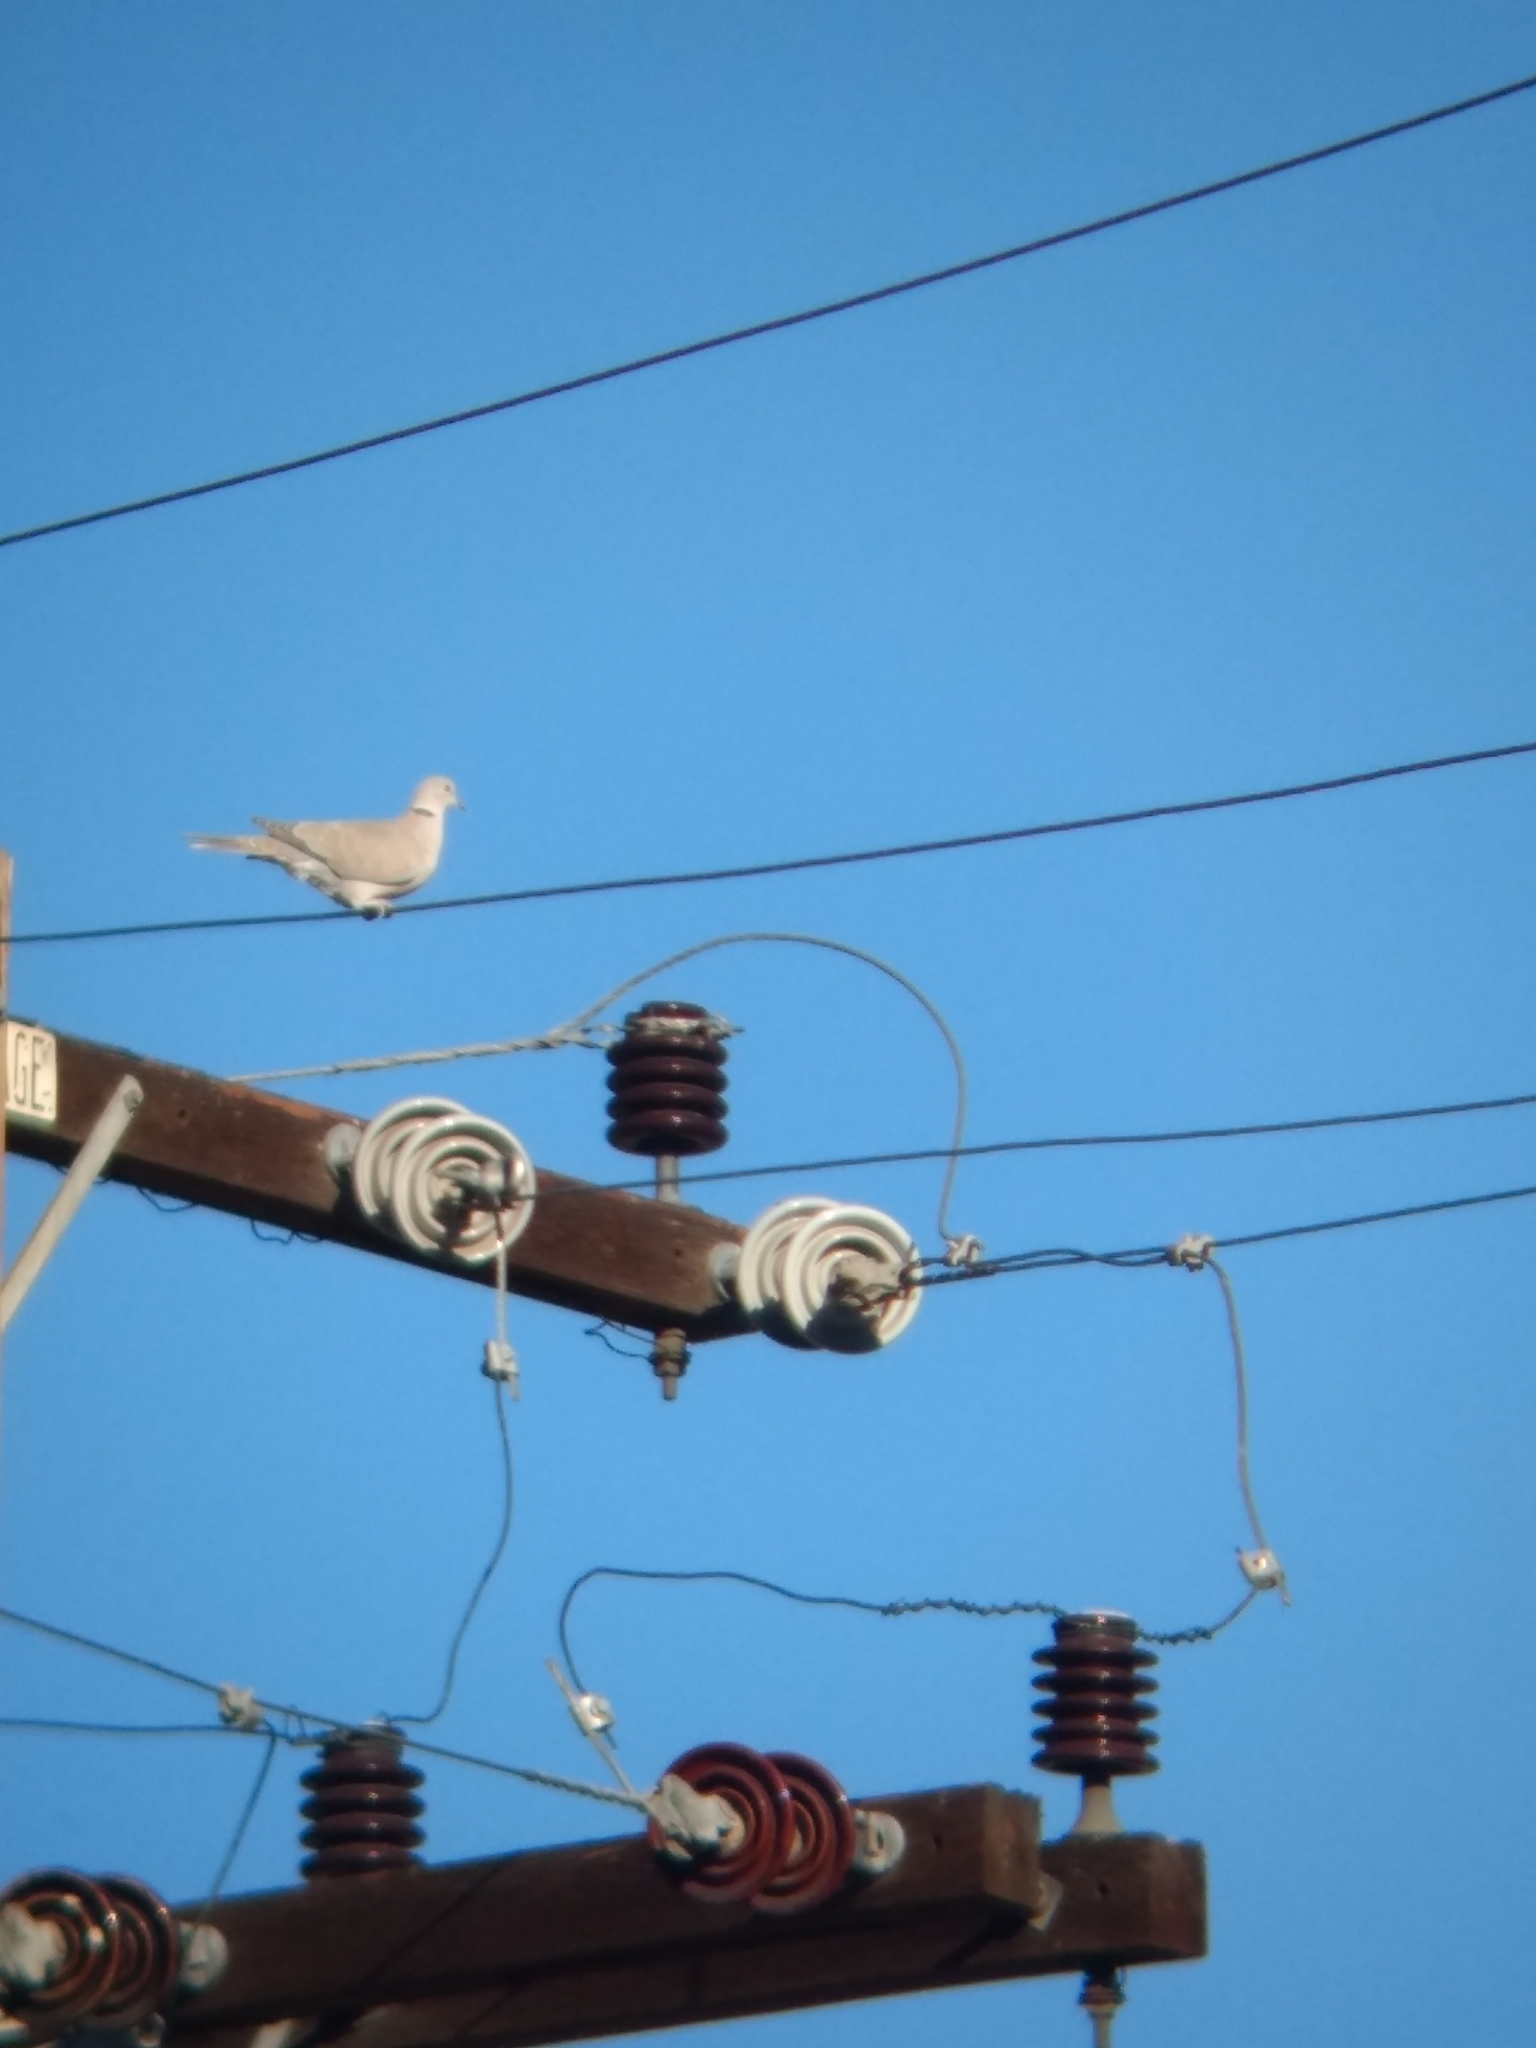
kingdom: Animalia
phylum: Chordata
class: Aves
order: Columbiformes
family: Columbidae
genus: Streptopelia
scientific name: Streptopelia decaocto
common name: Eurasian collared dove
